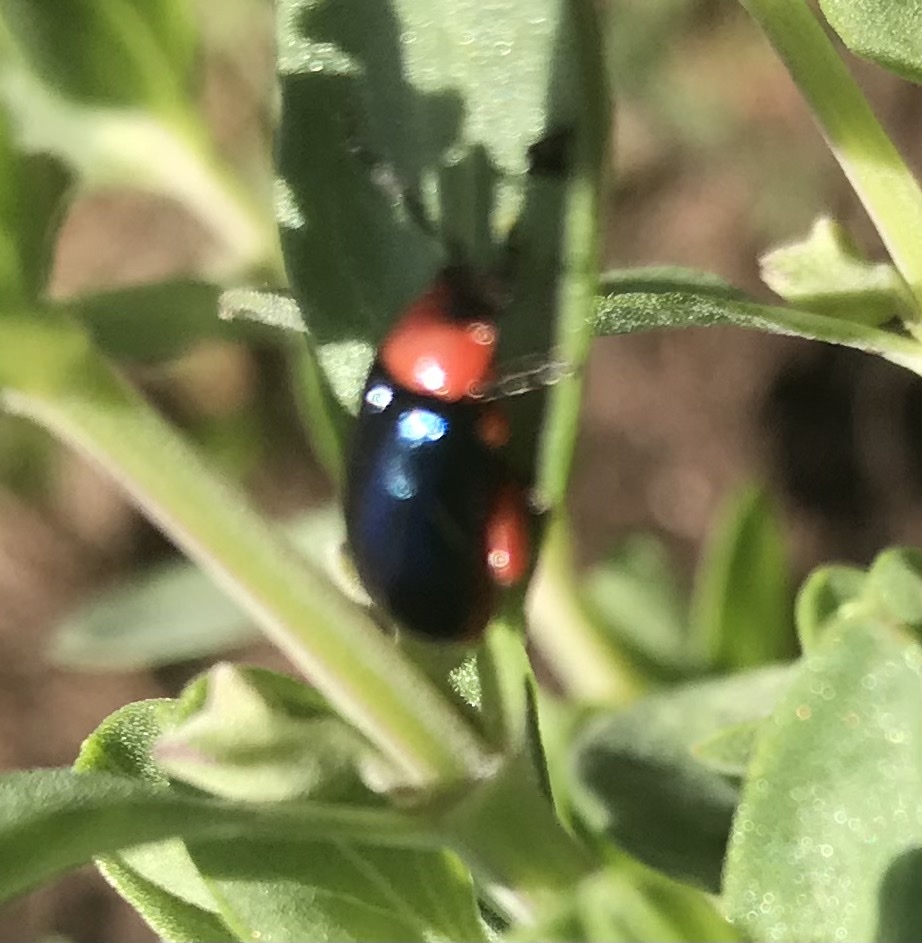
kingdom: Animalia
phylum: Arthropoda
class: Insecta
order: Coleoptera
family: Chrysomelidae
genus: Asphaera
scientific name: Asphaera lustrans
